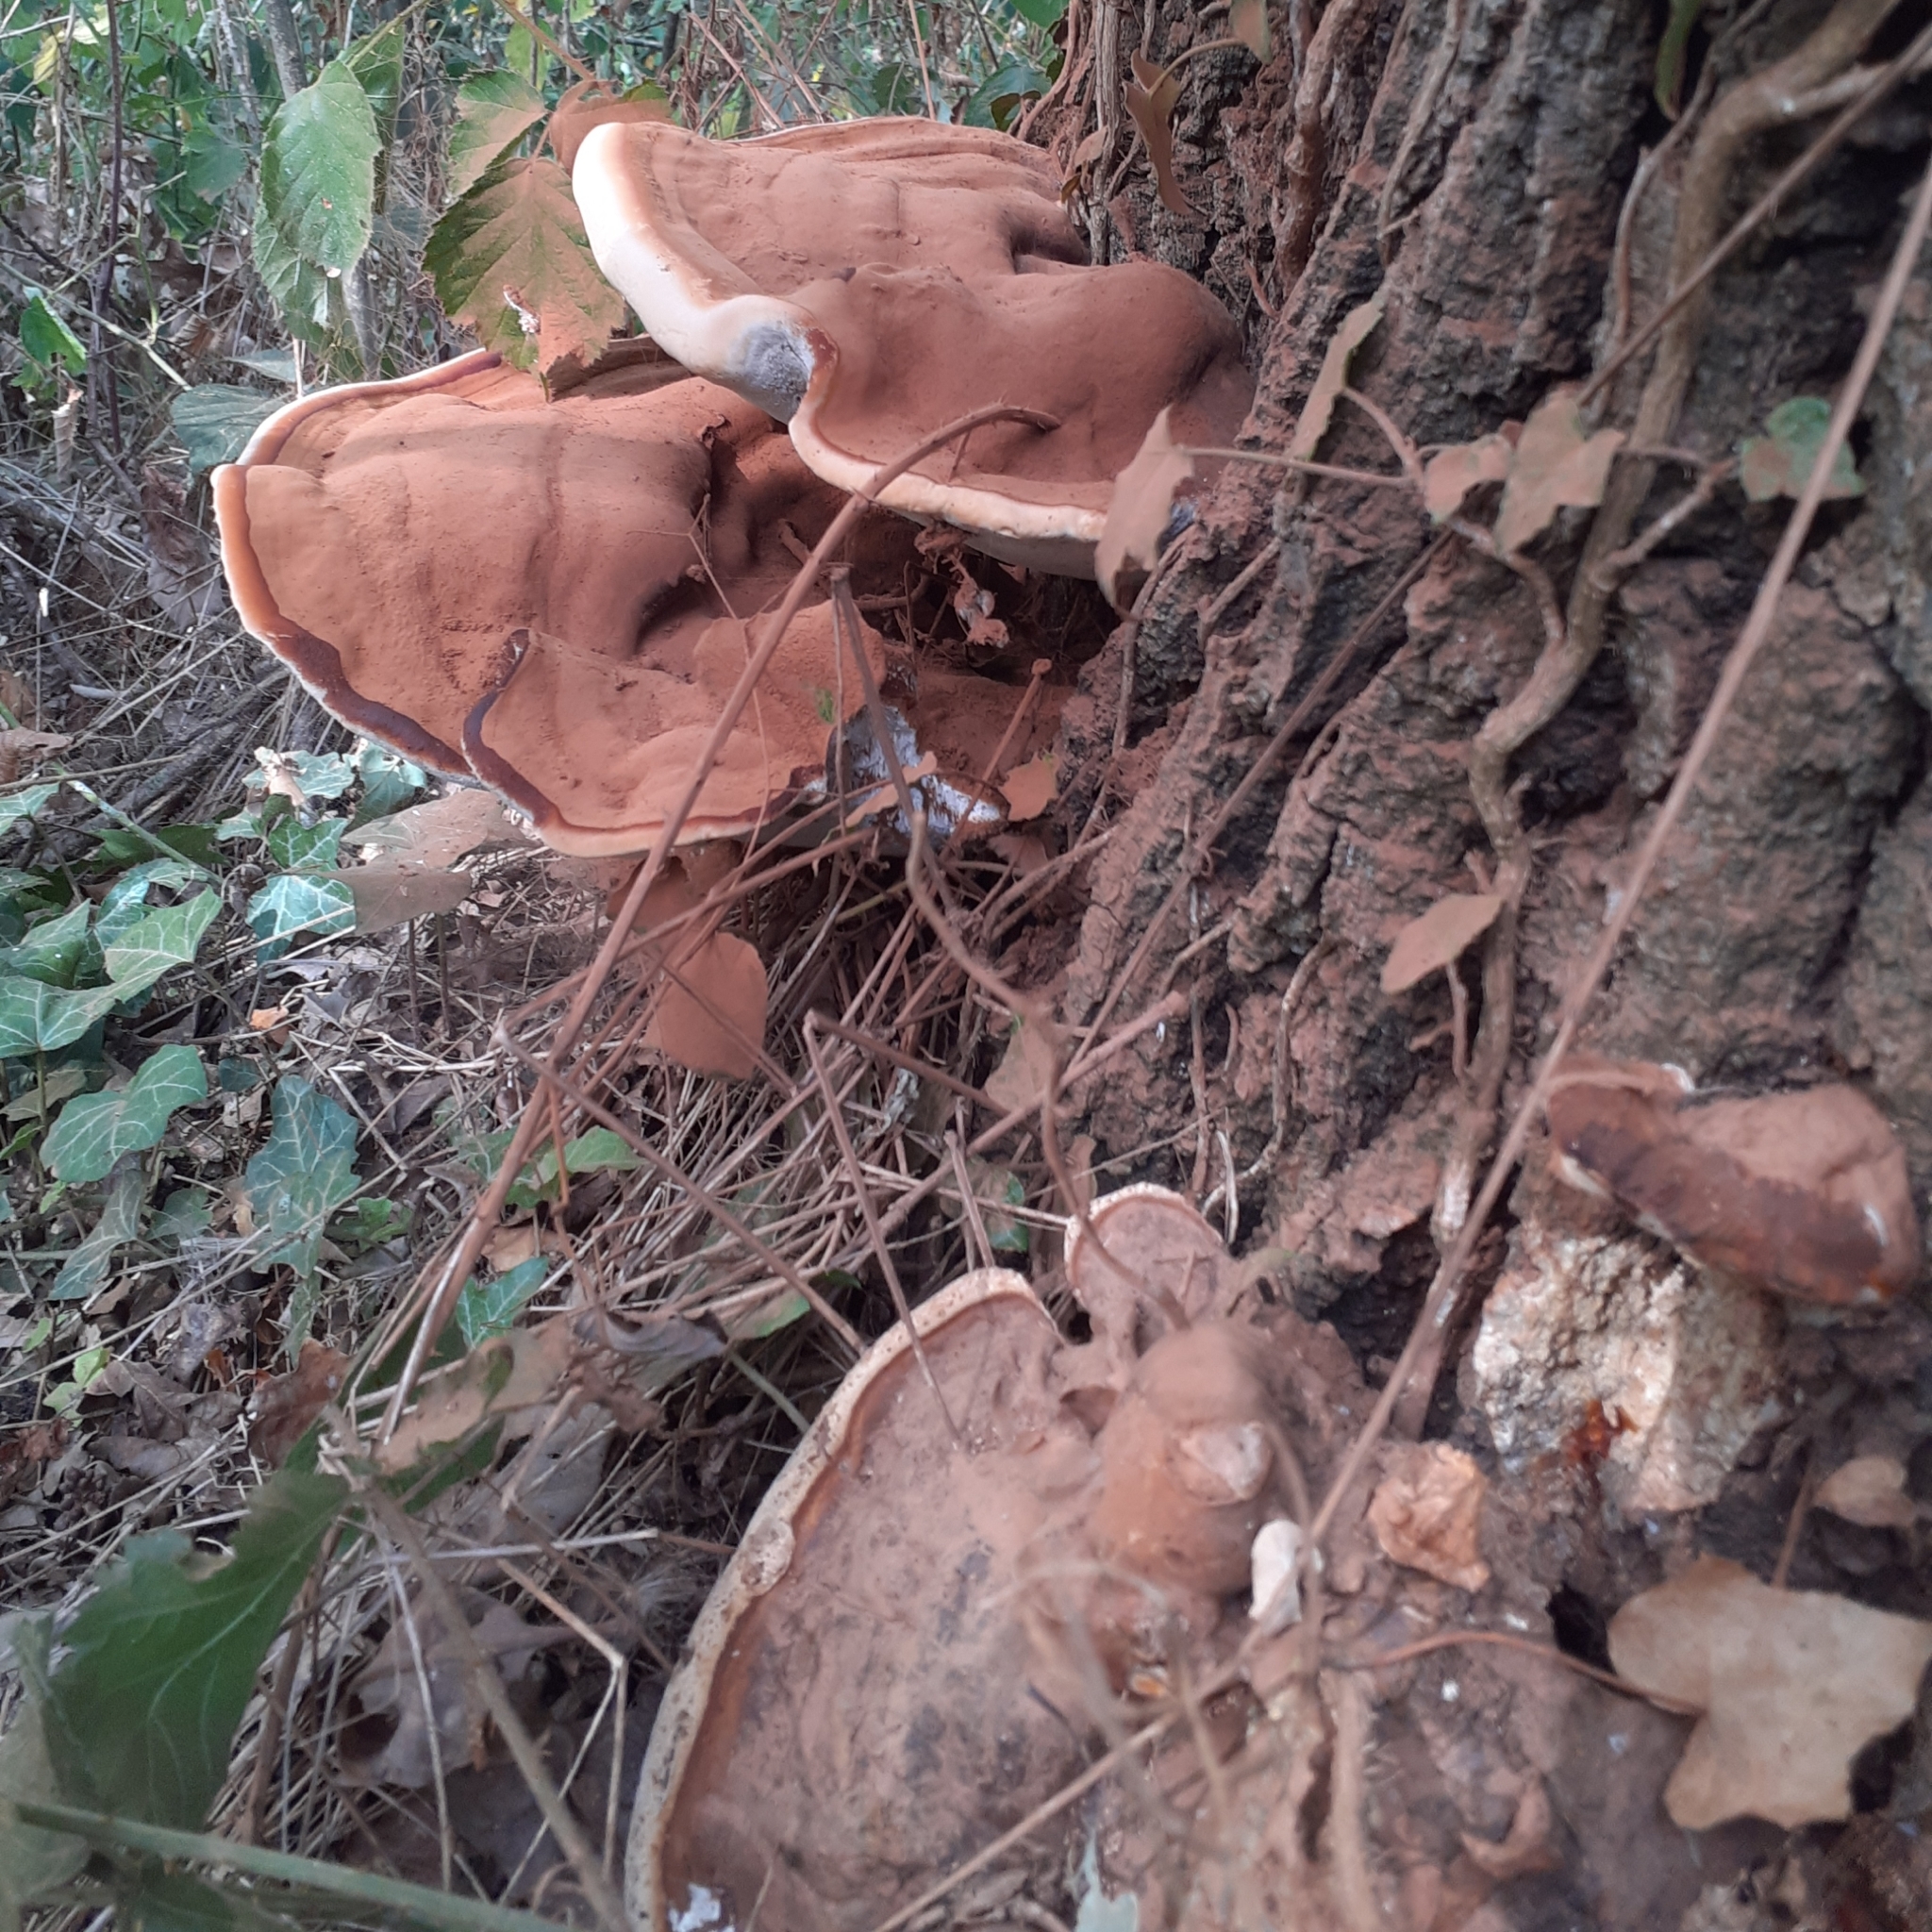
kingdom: Fungi
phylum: Basidiomycota
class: Agaricomycetes
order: Polyporales
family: Polyporaceae
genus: Ganoderma
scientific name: Ganoderma applanatum
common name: Artist's bracket
